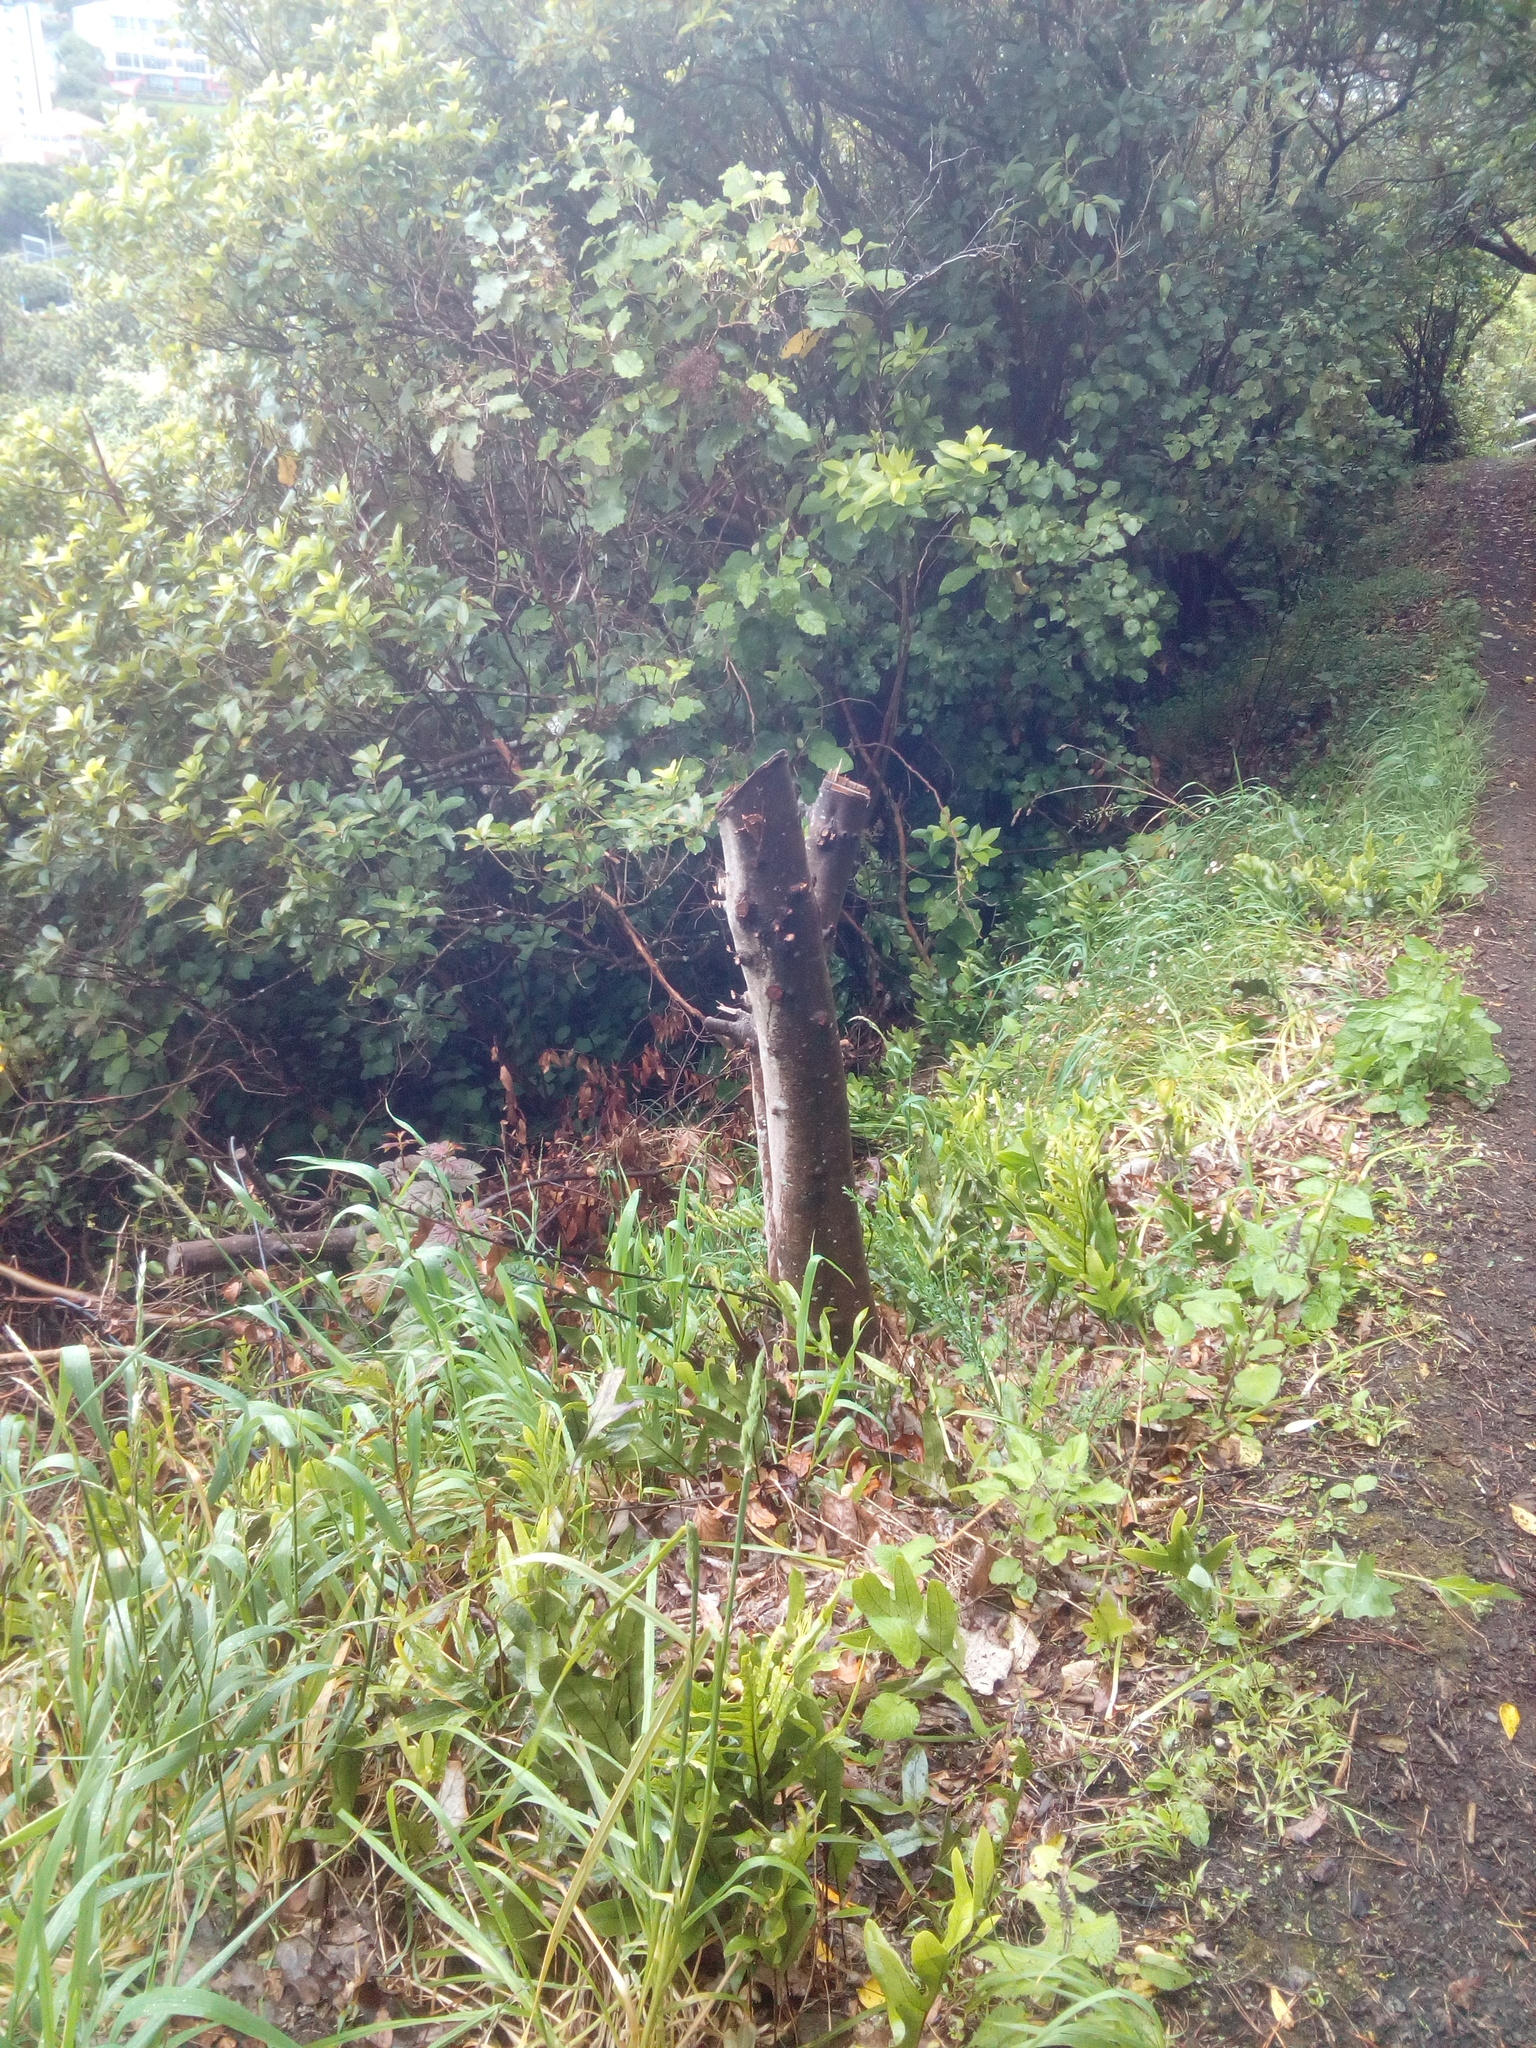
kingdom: Animalia
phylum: Arthropoda
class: Insecta
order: Lepidoptera
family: Oecophoridae
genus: Chersadaula
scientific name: Chersadaula ochrogastra
